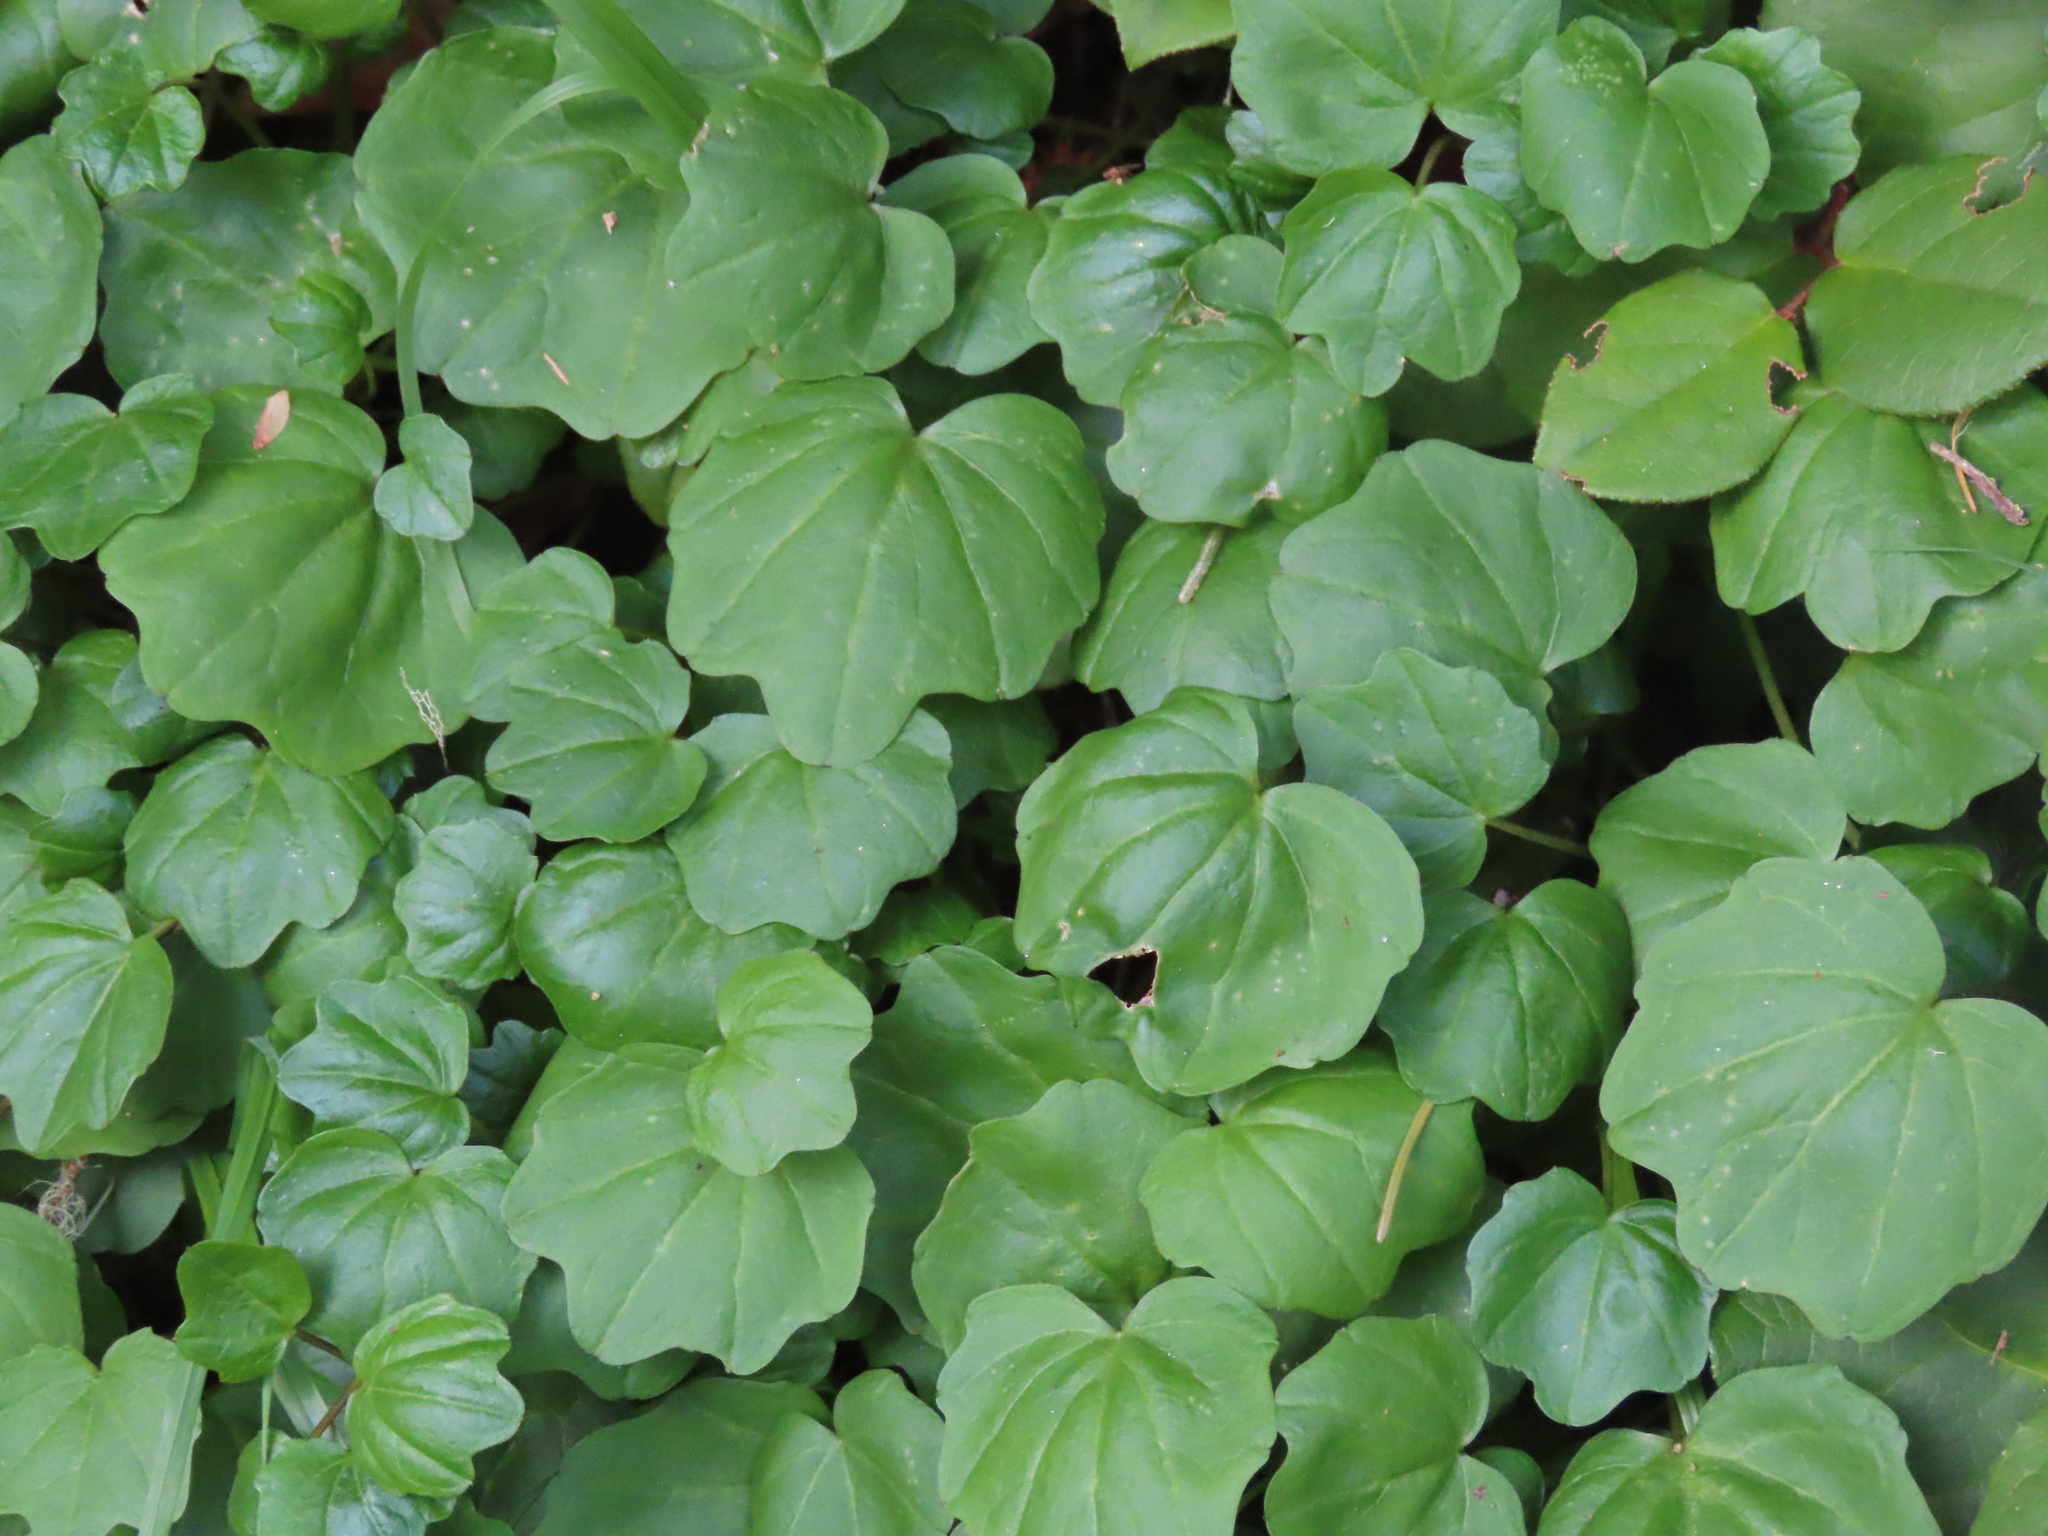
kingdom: Plantae
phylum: Tracheophyta
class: Magnoliopsida
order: Brassicales
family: Brassicaceae
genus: Cardamine
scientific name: Cardamine nuttallii
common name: Nuttall's toothwort
